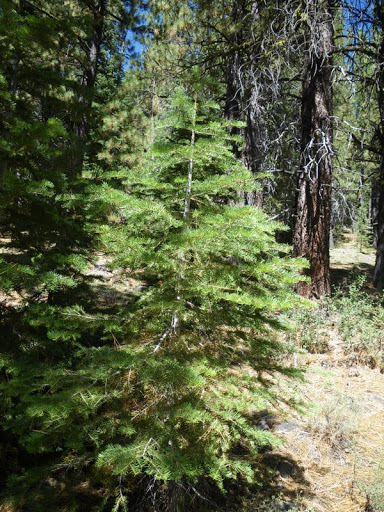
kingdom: Plantae
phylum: Tracheophyta
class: Pinopsida
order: Pinales
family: Pinaceae
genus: Abies
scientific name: Abies concolor
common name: Colorado fir
